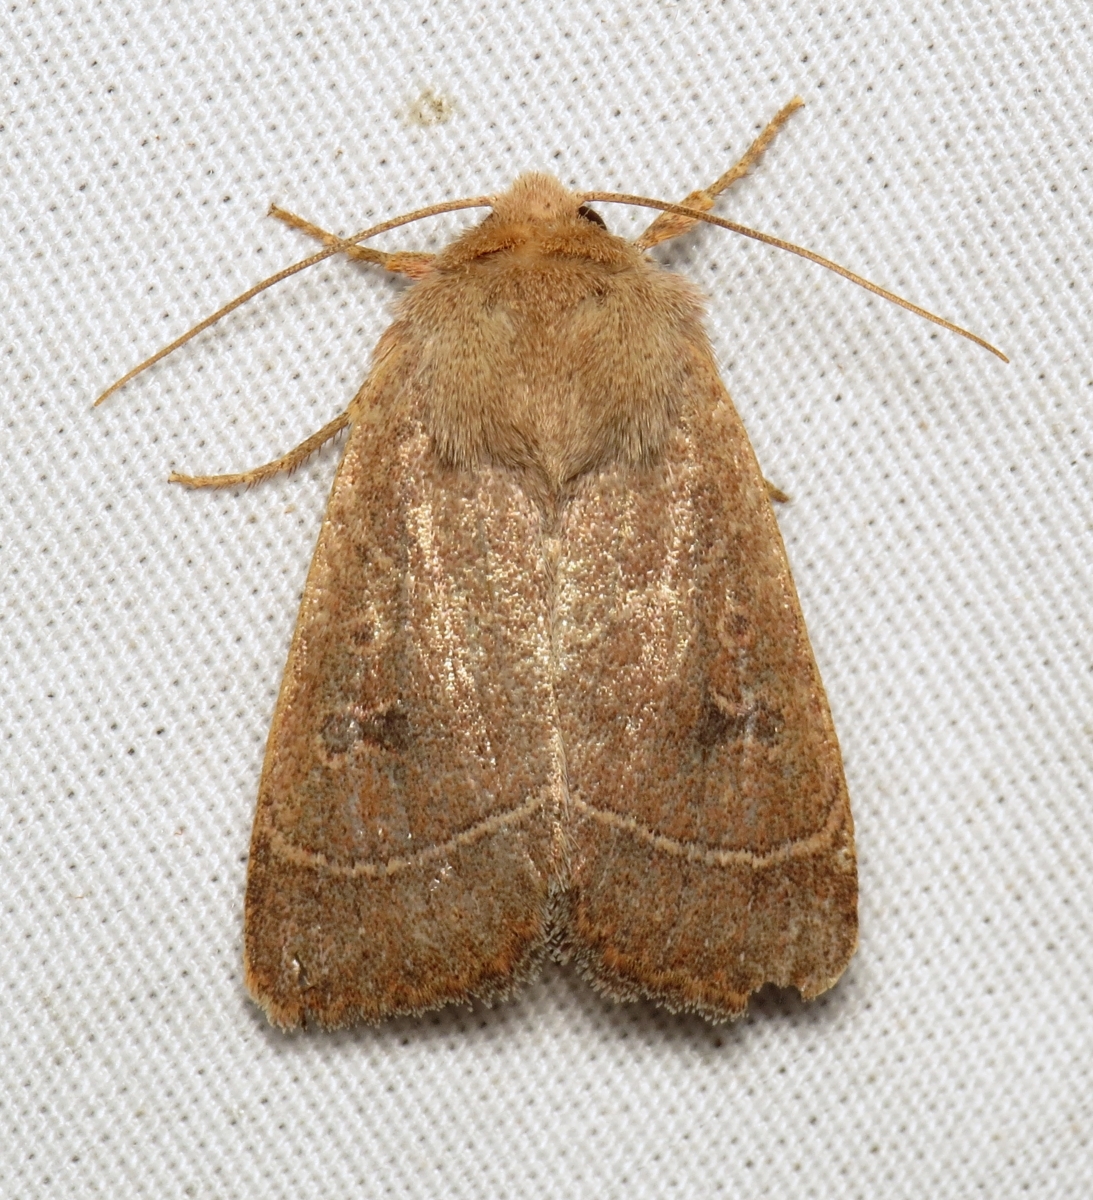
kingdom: Animalia
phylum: Arthropoda
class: Insecta
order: Lepidoptera
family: Noctuidae
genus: Ulolonche
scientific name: Ulolonche culea
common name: Sheathed quaker
